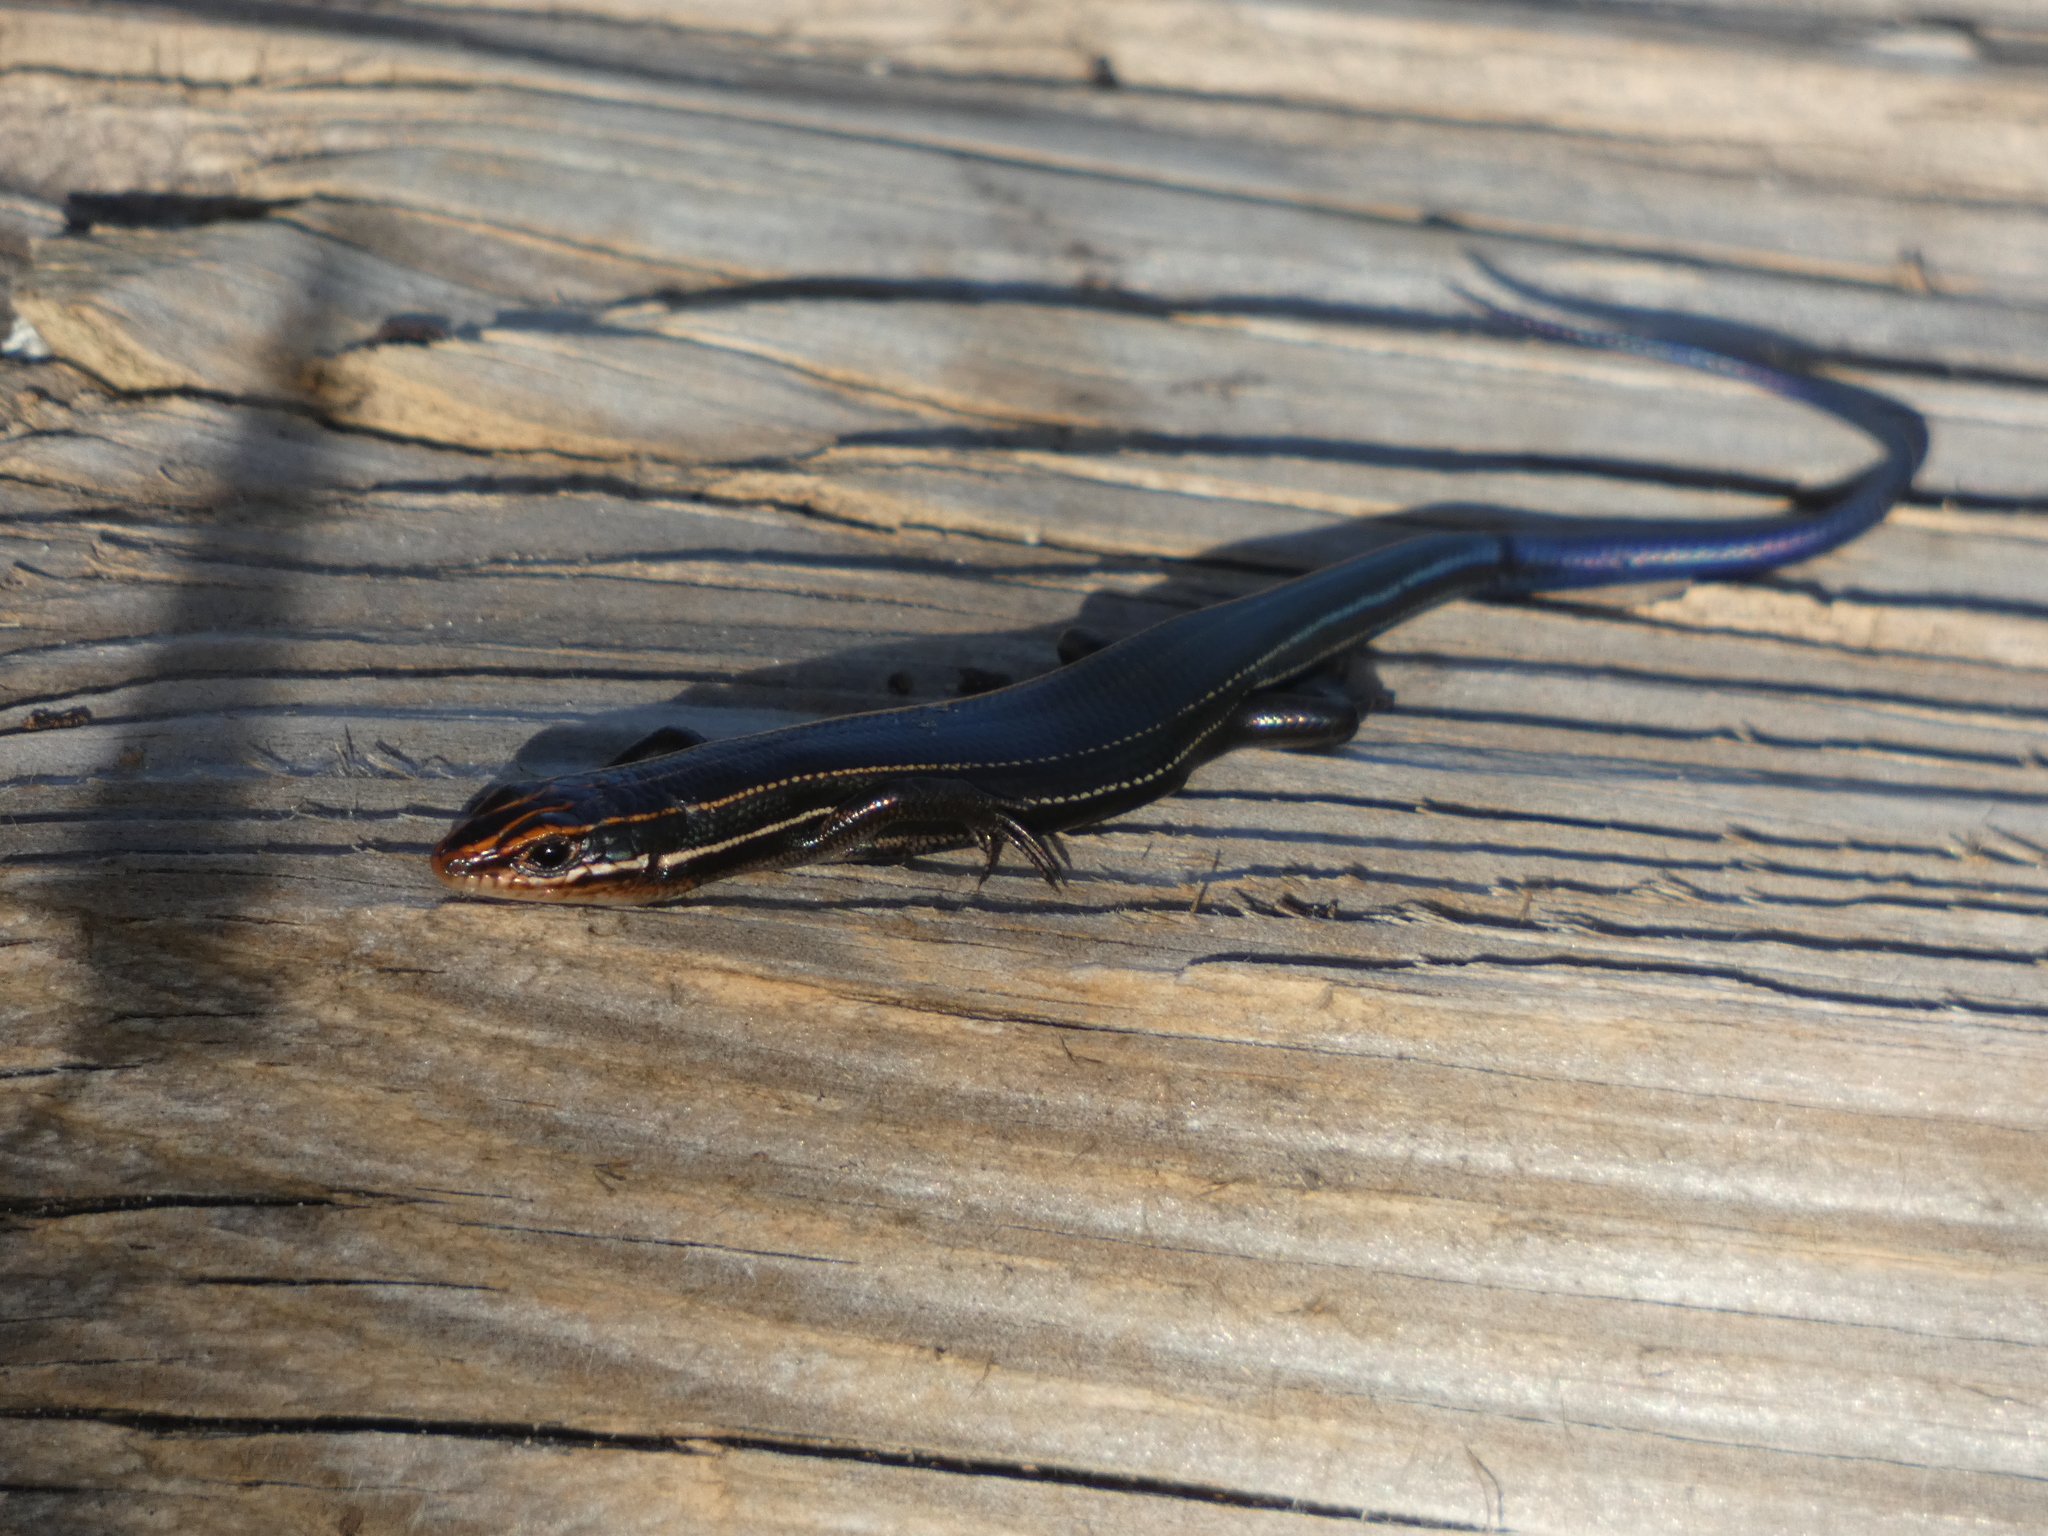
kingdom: Animalia
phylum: Chordata
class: Squamata
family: Scincidae
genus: Plestiodon
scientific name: Plestiodon inexpectatus
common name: Southeastern five-lined skink
